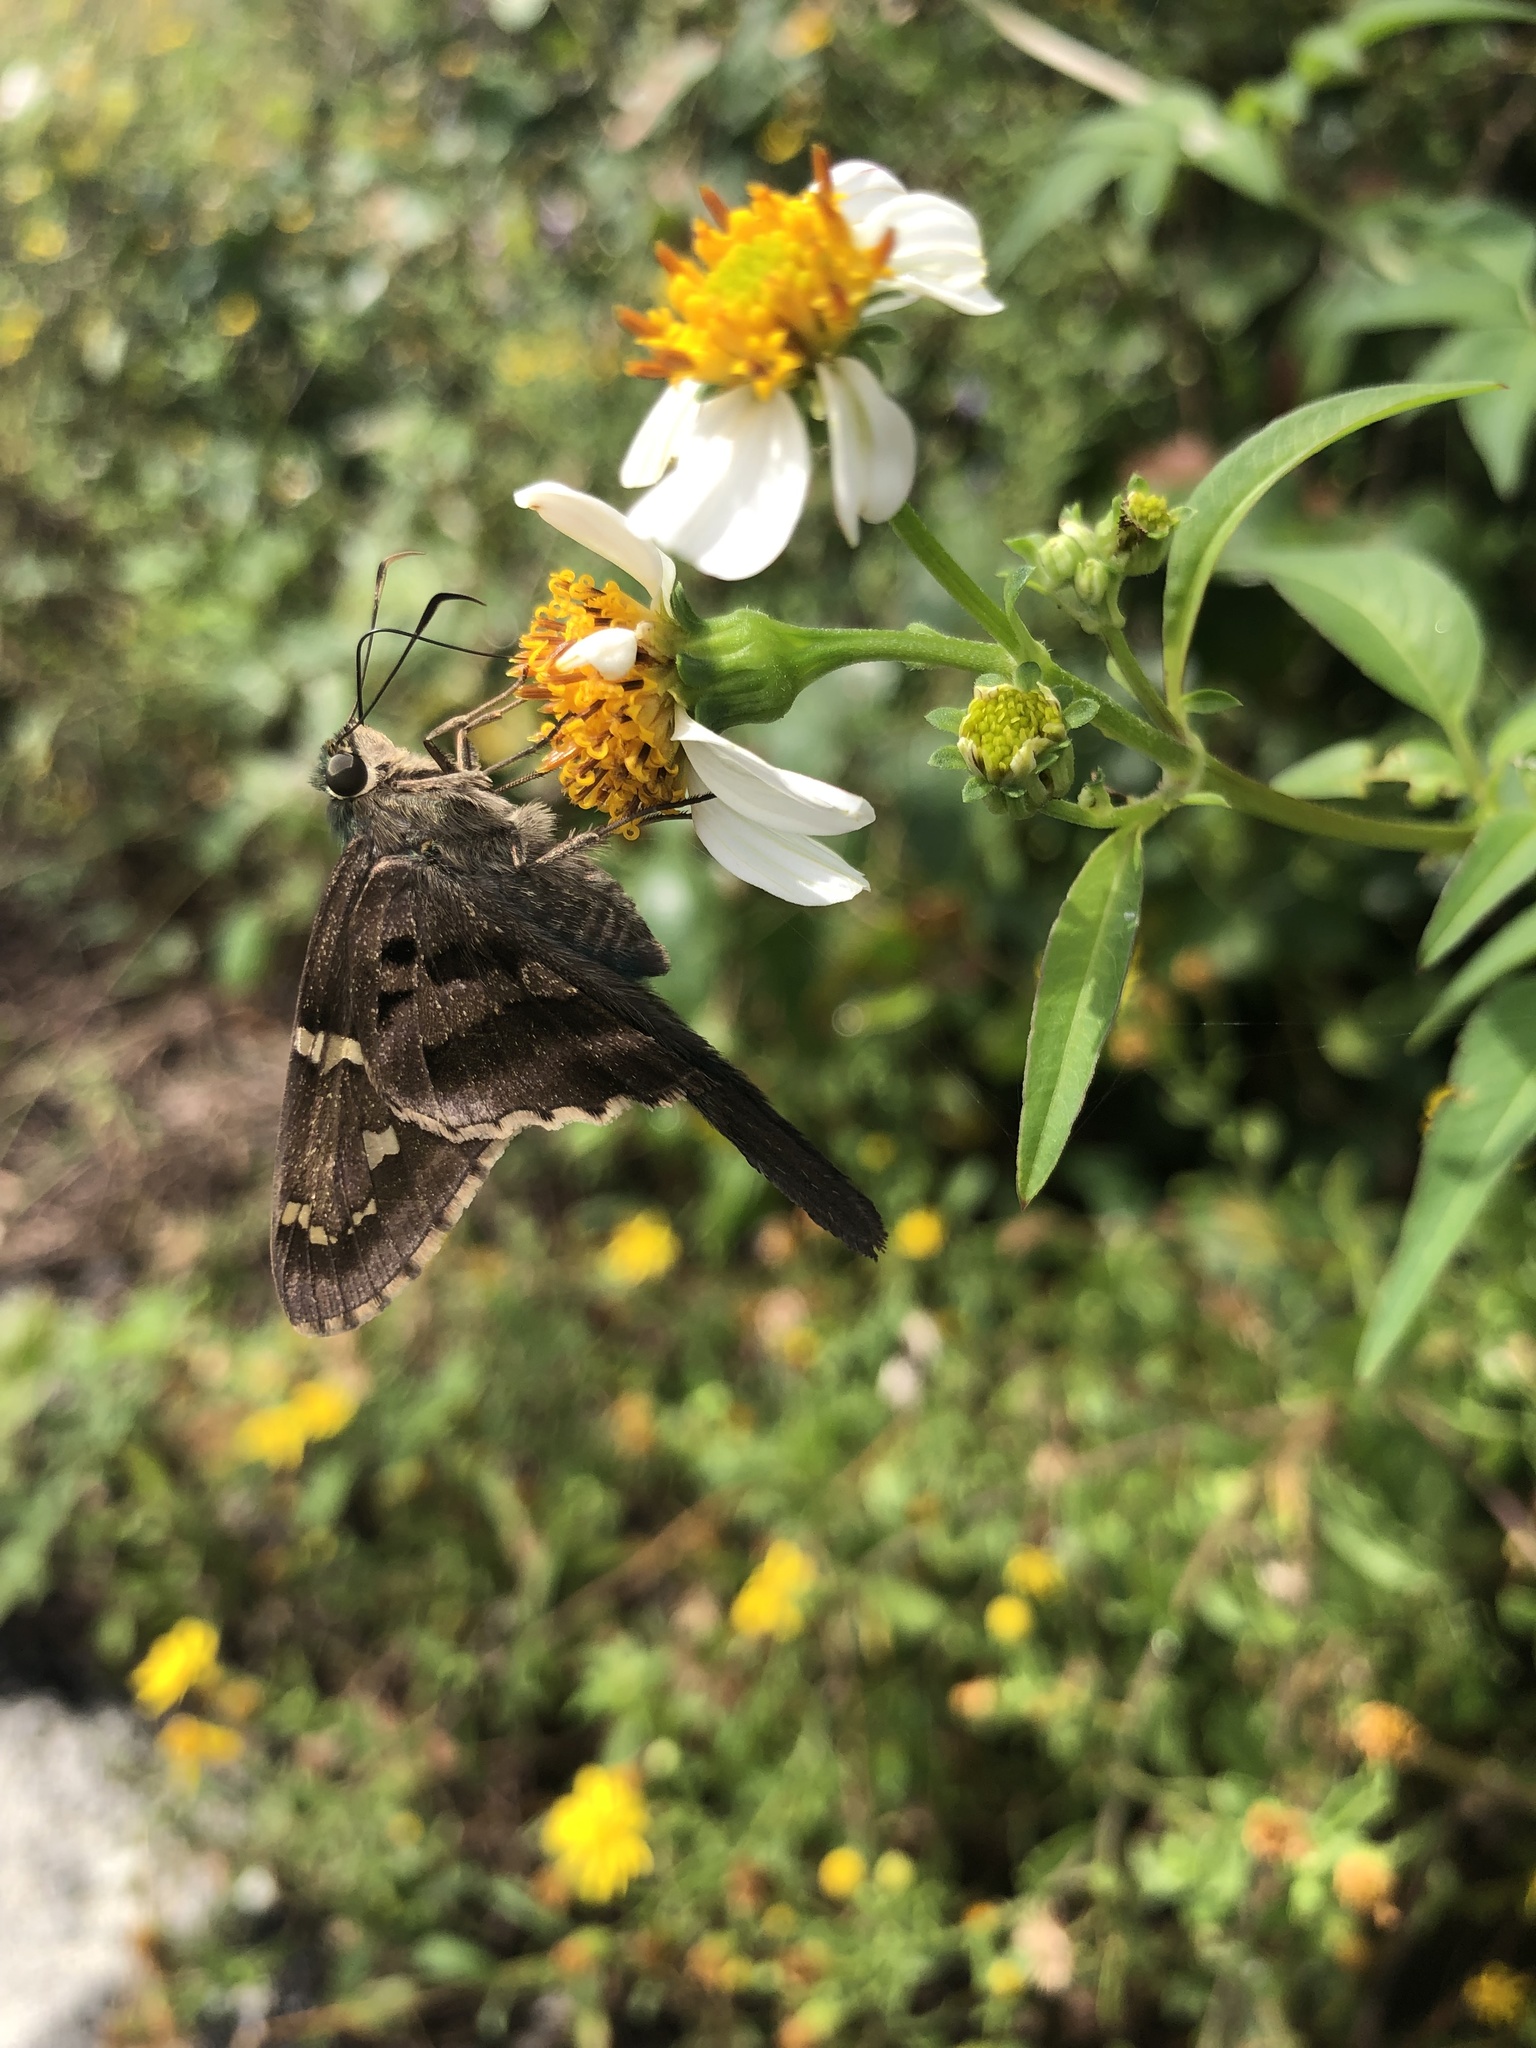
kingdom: Animalia
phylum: Arthropoda
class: Insecta
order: Lepidoptera
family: Hesperiidae
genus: Urbanus
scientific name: Urbanus proteus
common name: Long-tailed skipper
